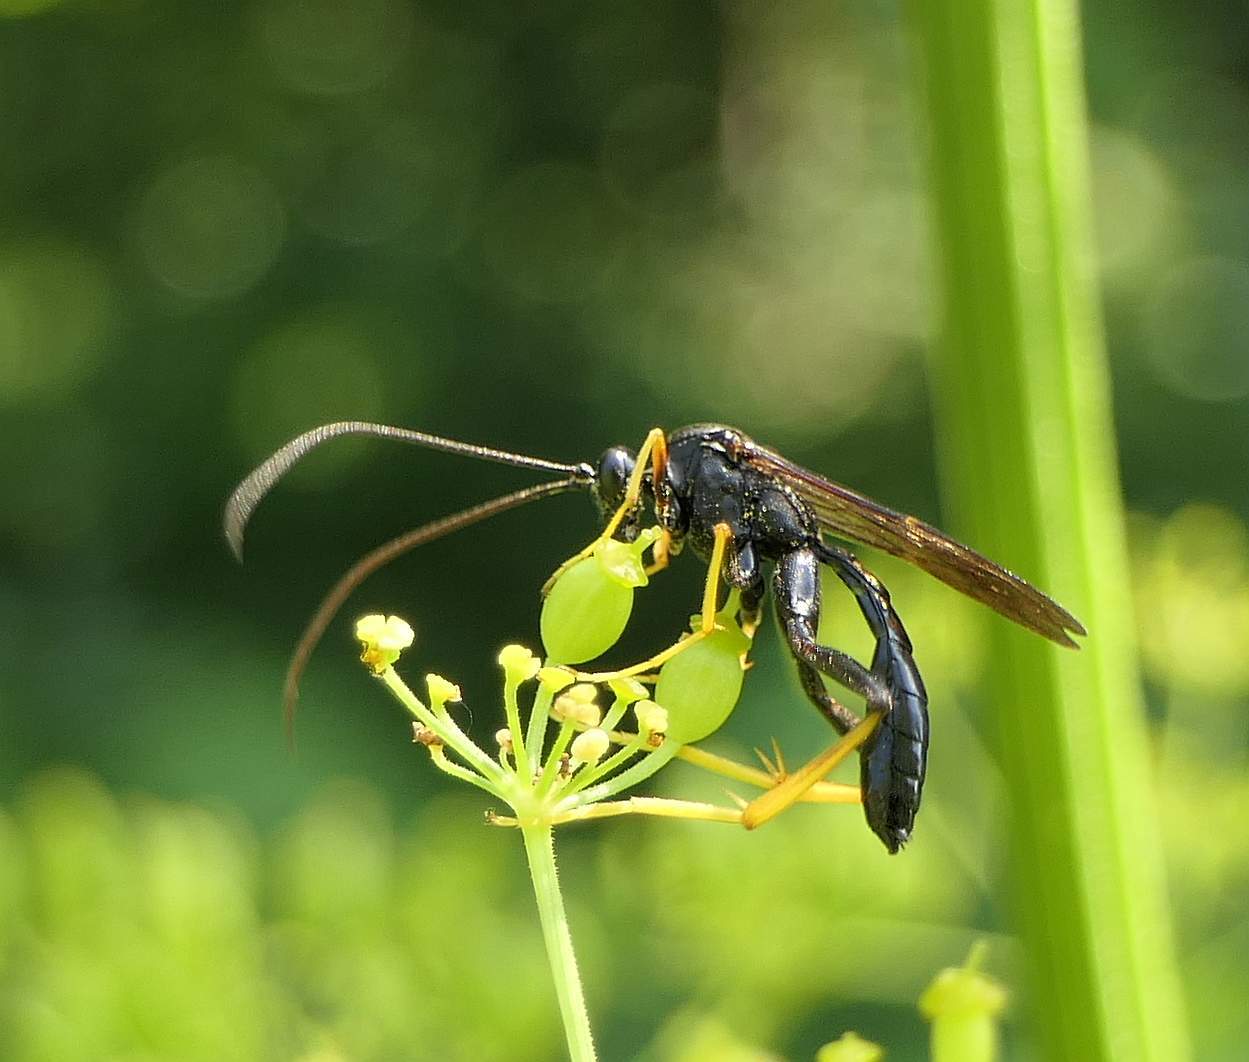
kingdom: Animalia
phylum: Arthropoda
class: Insecta
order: Hymenoptera
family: Ichneumonidae
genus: Exetastes
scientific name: Exetastes suaveolens
